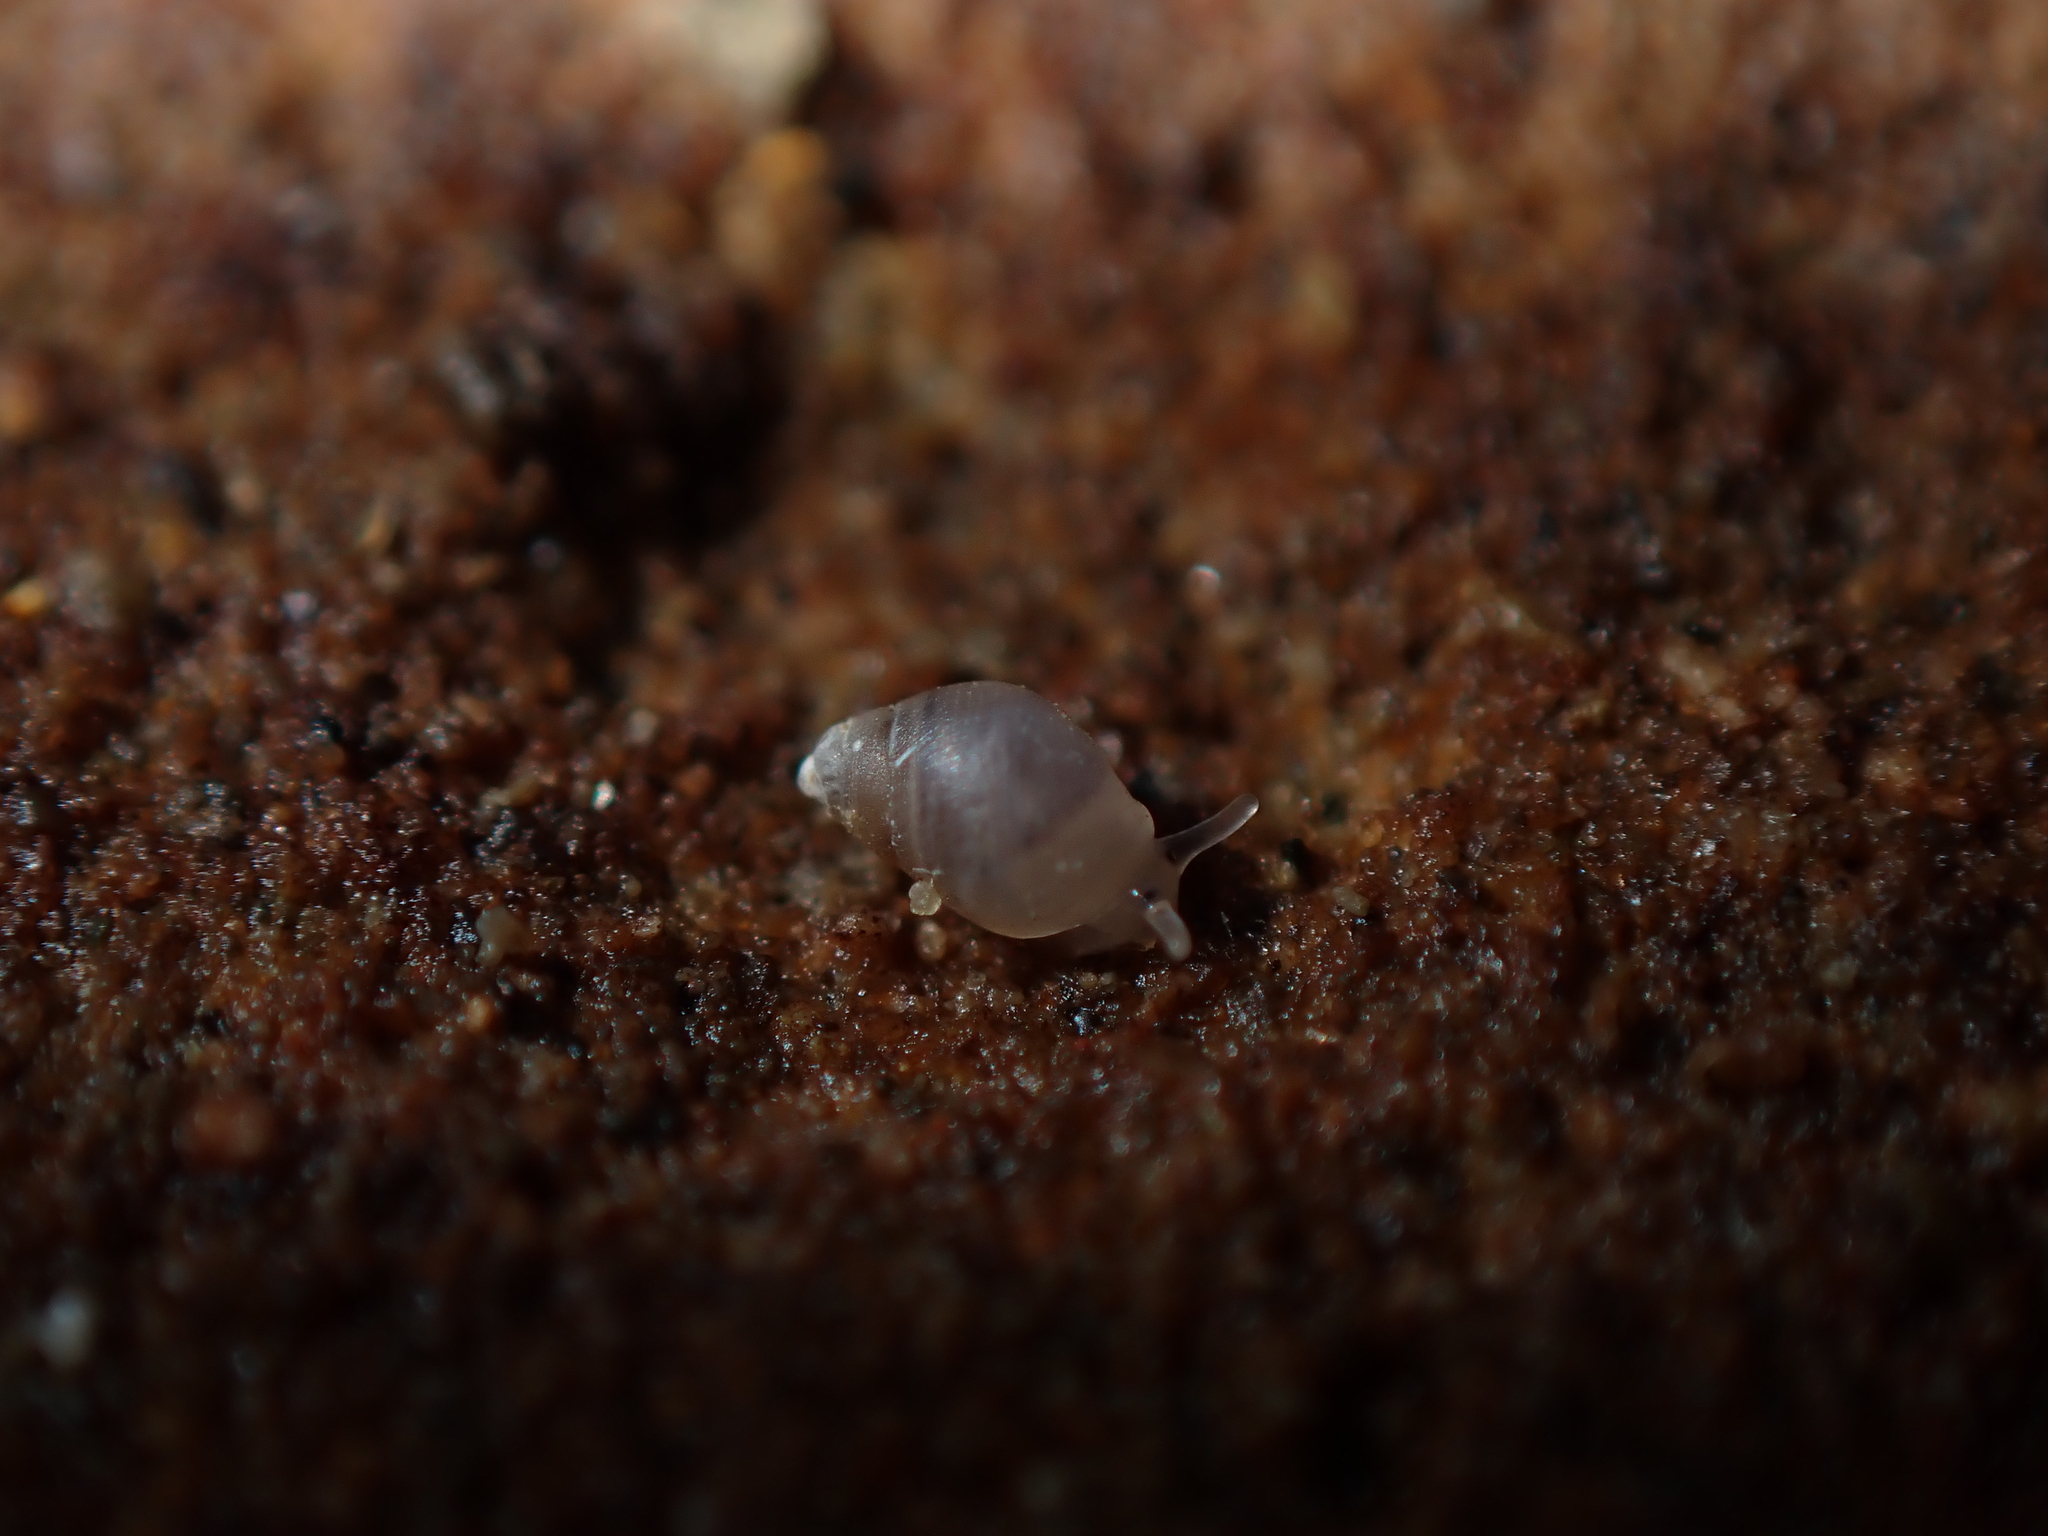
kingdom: Animalia
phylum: Mollusca
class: Gastropoda
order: Ellobiida
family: Ellobiidae
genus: Leuconopsis
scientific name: Leuconopsis obsoleta
